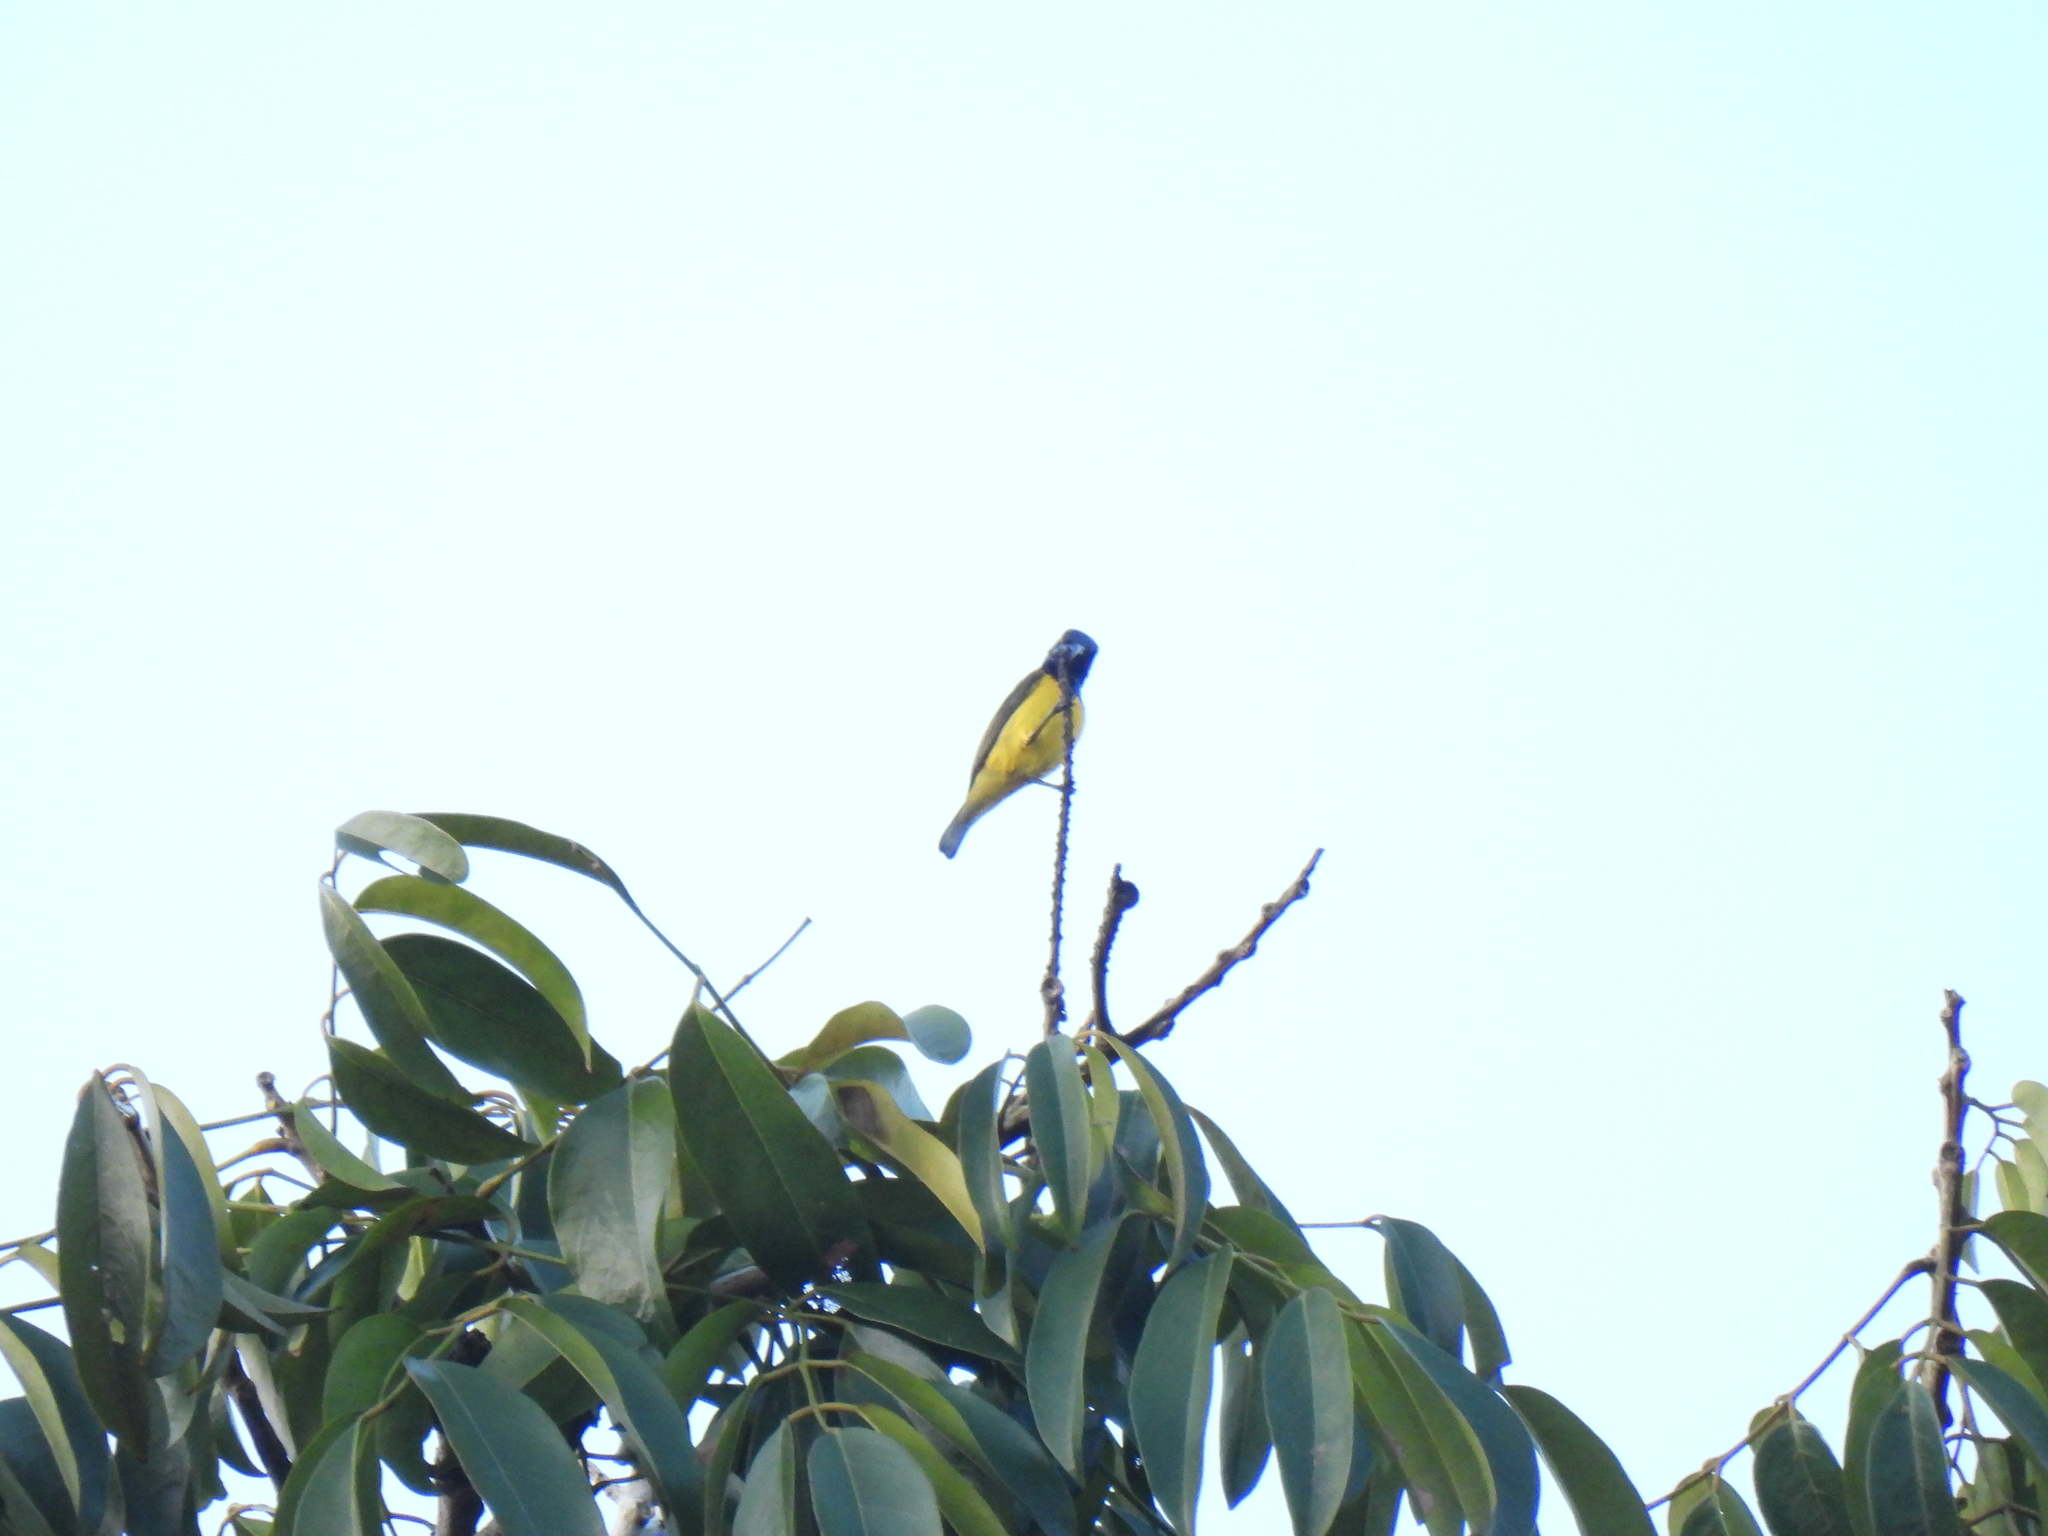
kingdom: Animalia
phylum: Chordata
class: Aves
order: Passeriformes
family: Nectariniidae
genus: Cinnyris
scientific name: Cinnyris
